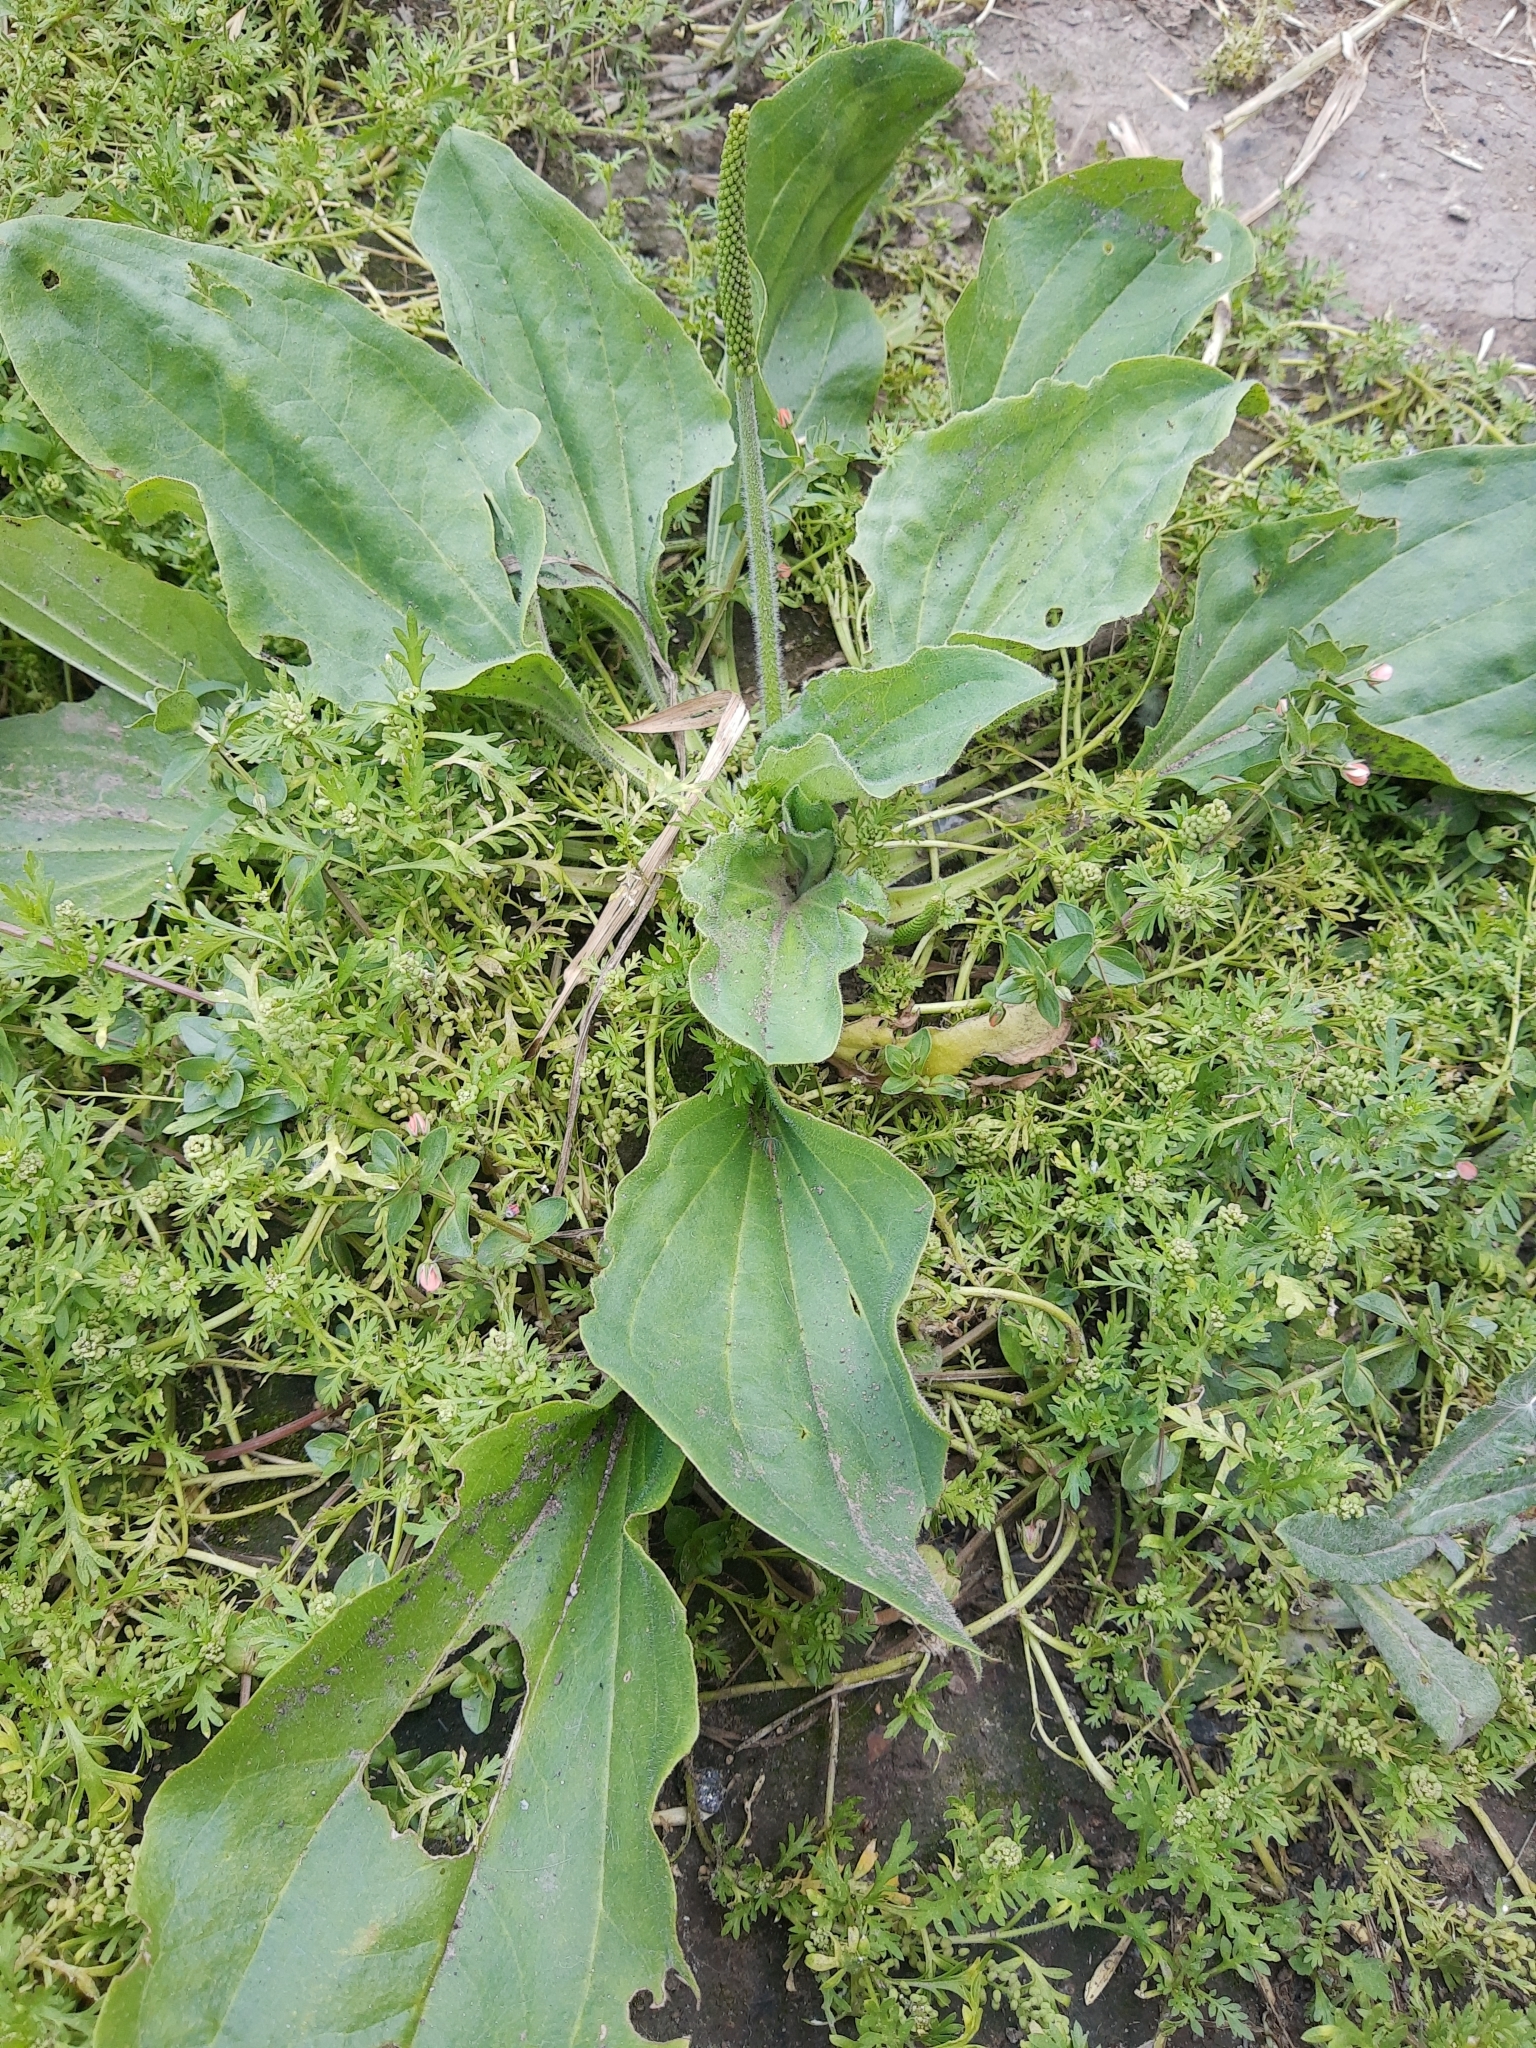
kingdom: Plantae
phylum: Tracheophyta
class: Magnoliopsida
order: Lamiales
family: Plantaginaceae
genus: Plantago
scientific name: Plantago major
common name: Common plantain
